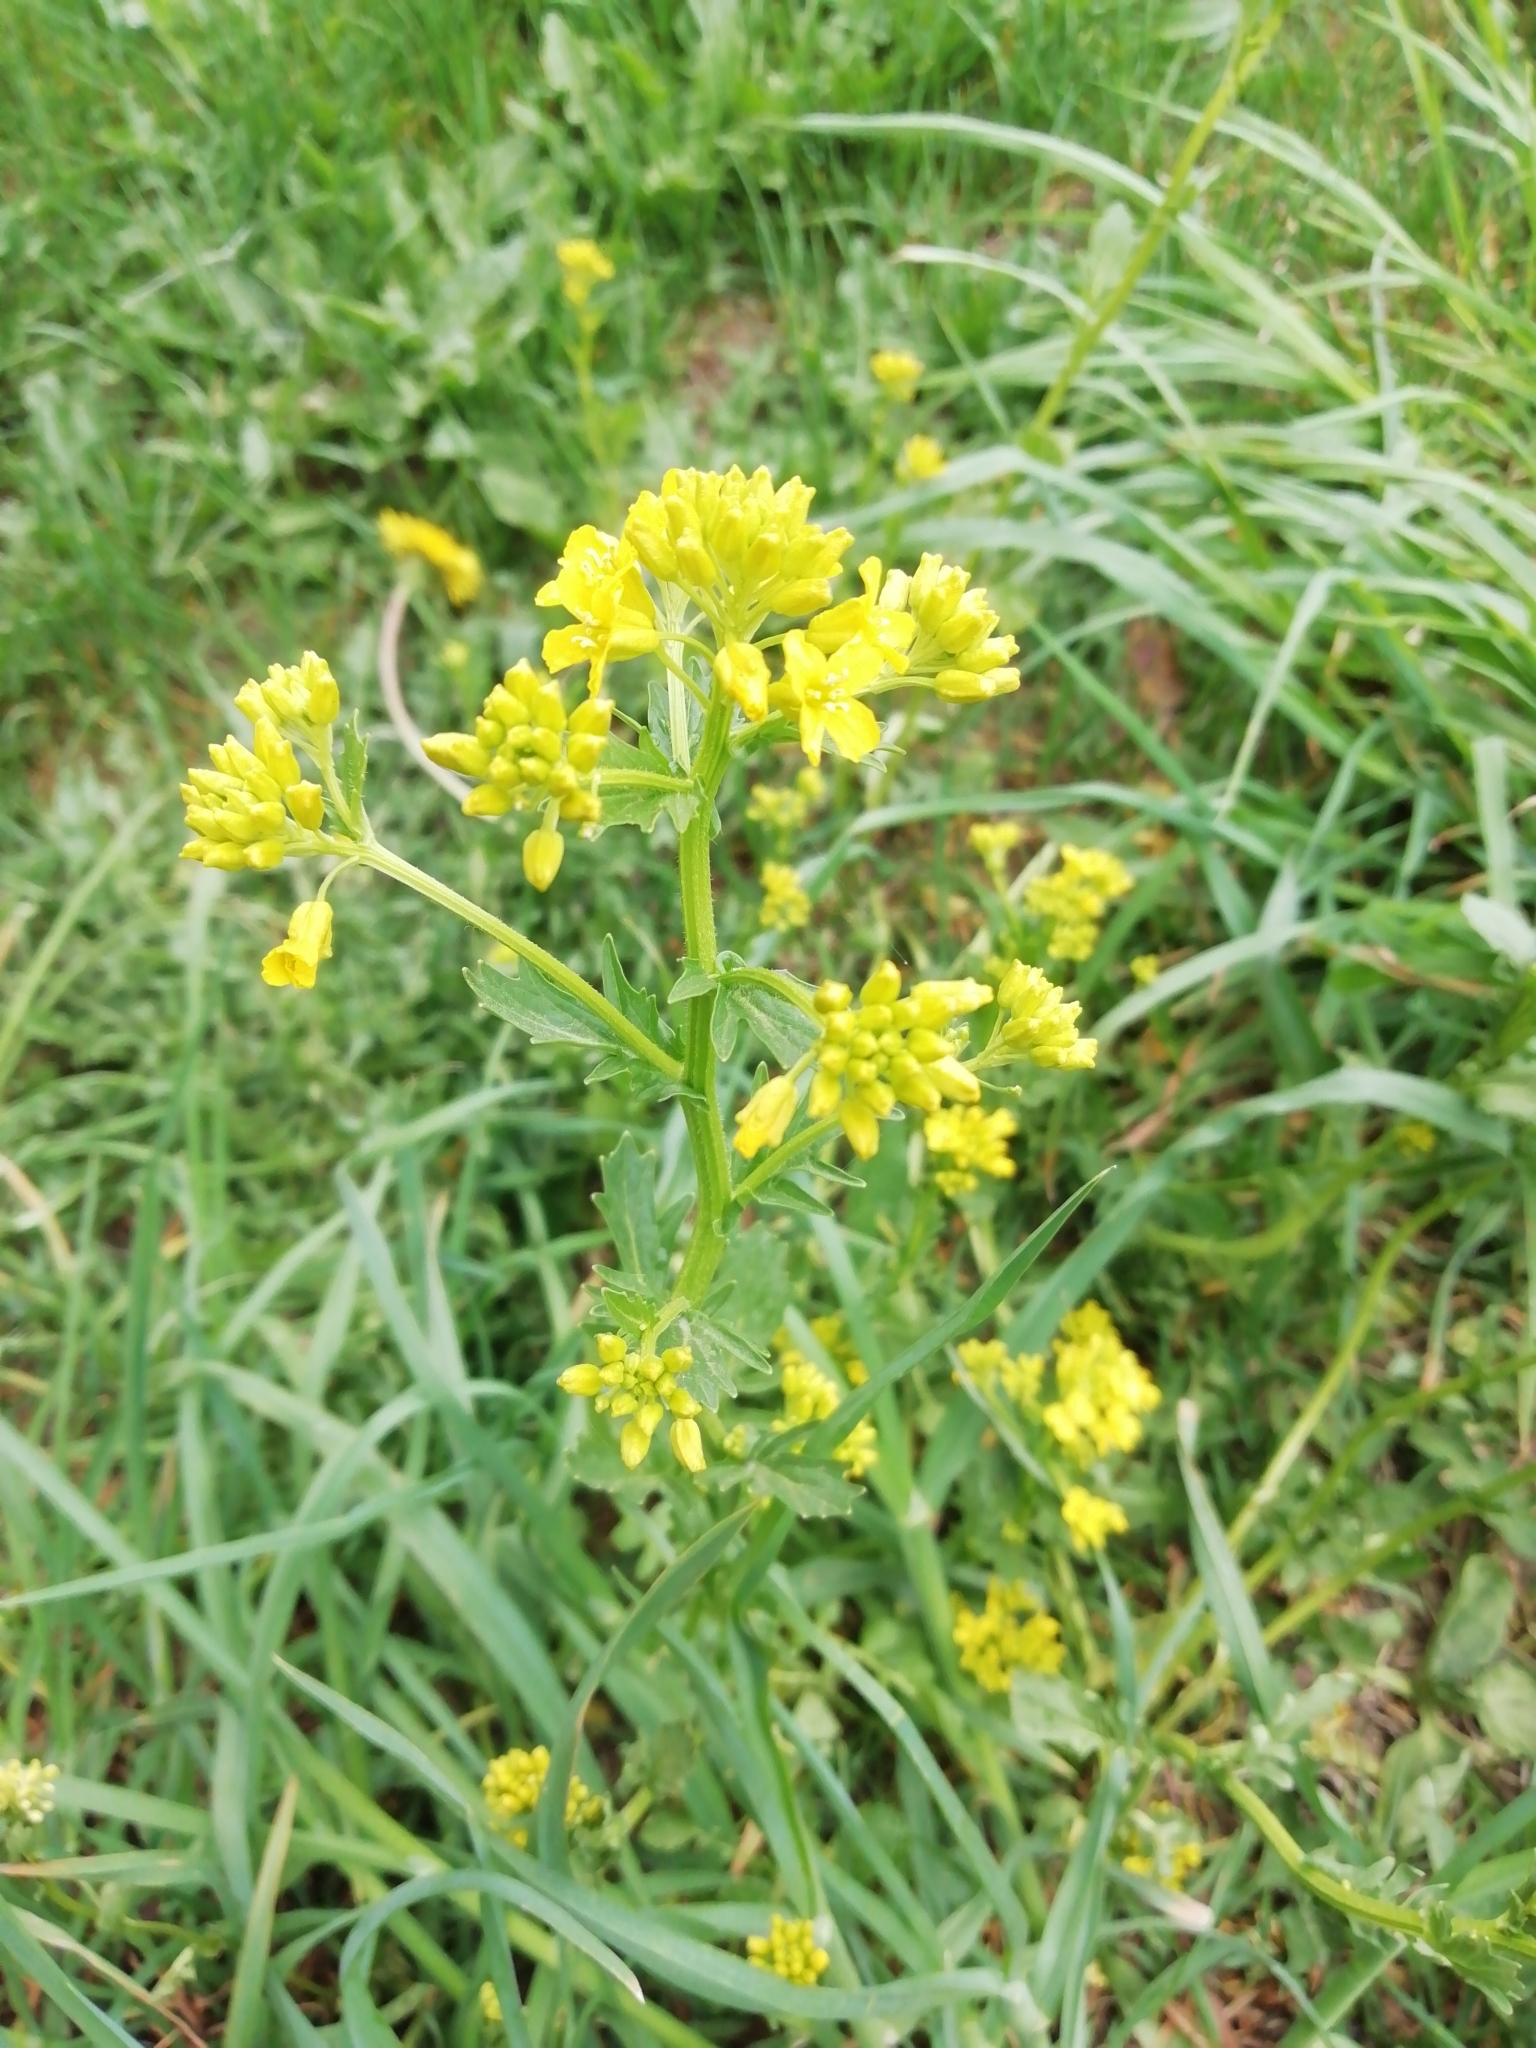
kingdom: Plantae
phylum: Tracheophyta
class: Magnoliopsida
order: Brassicales
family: Brassicaceae
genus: Barbarea
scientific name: Barbarea vulgaris
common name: Cressy-greens
